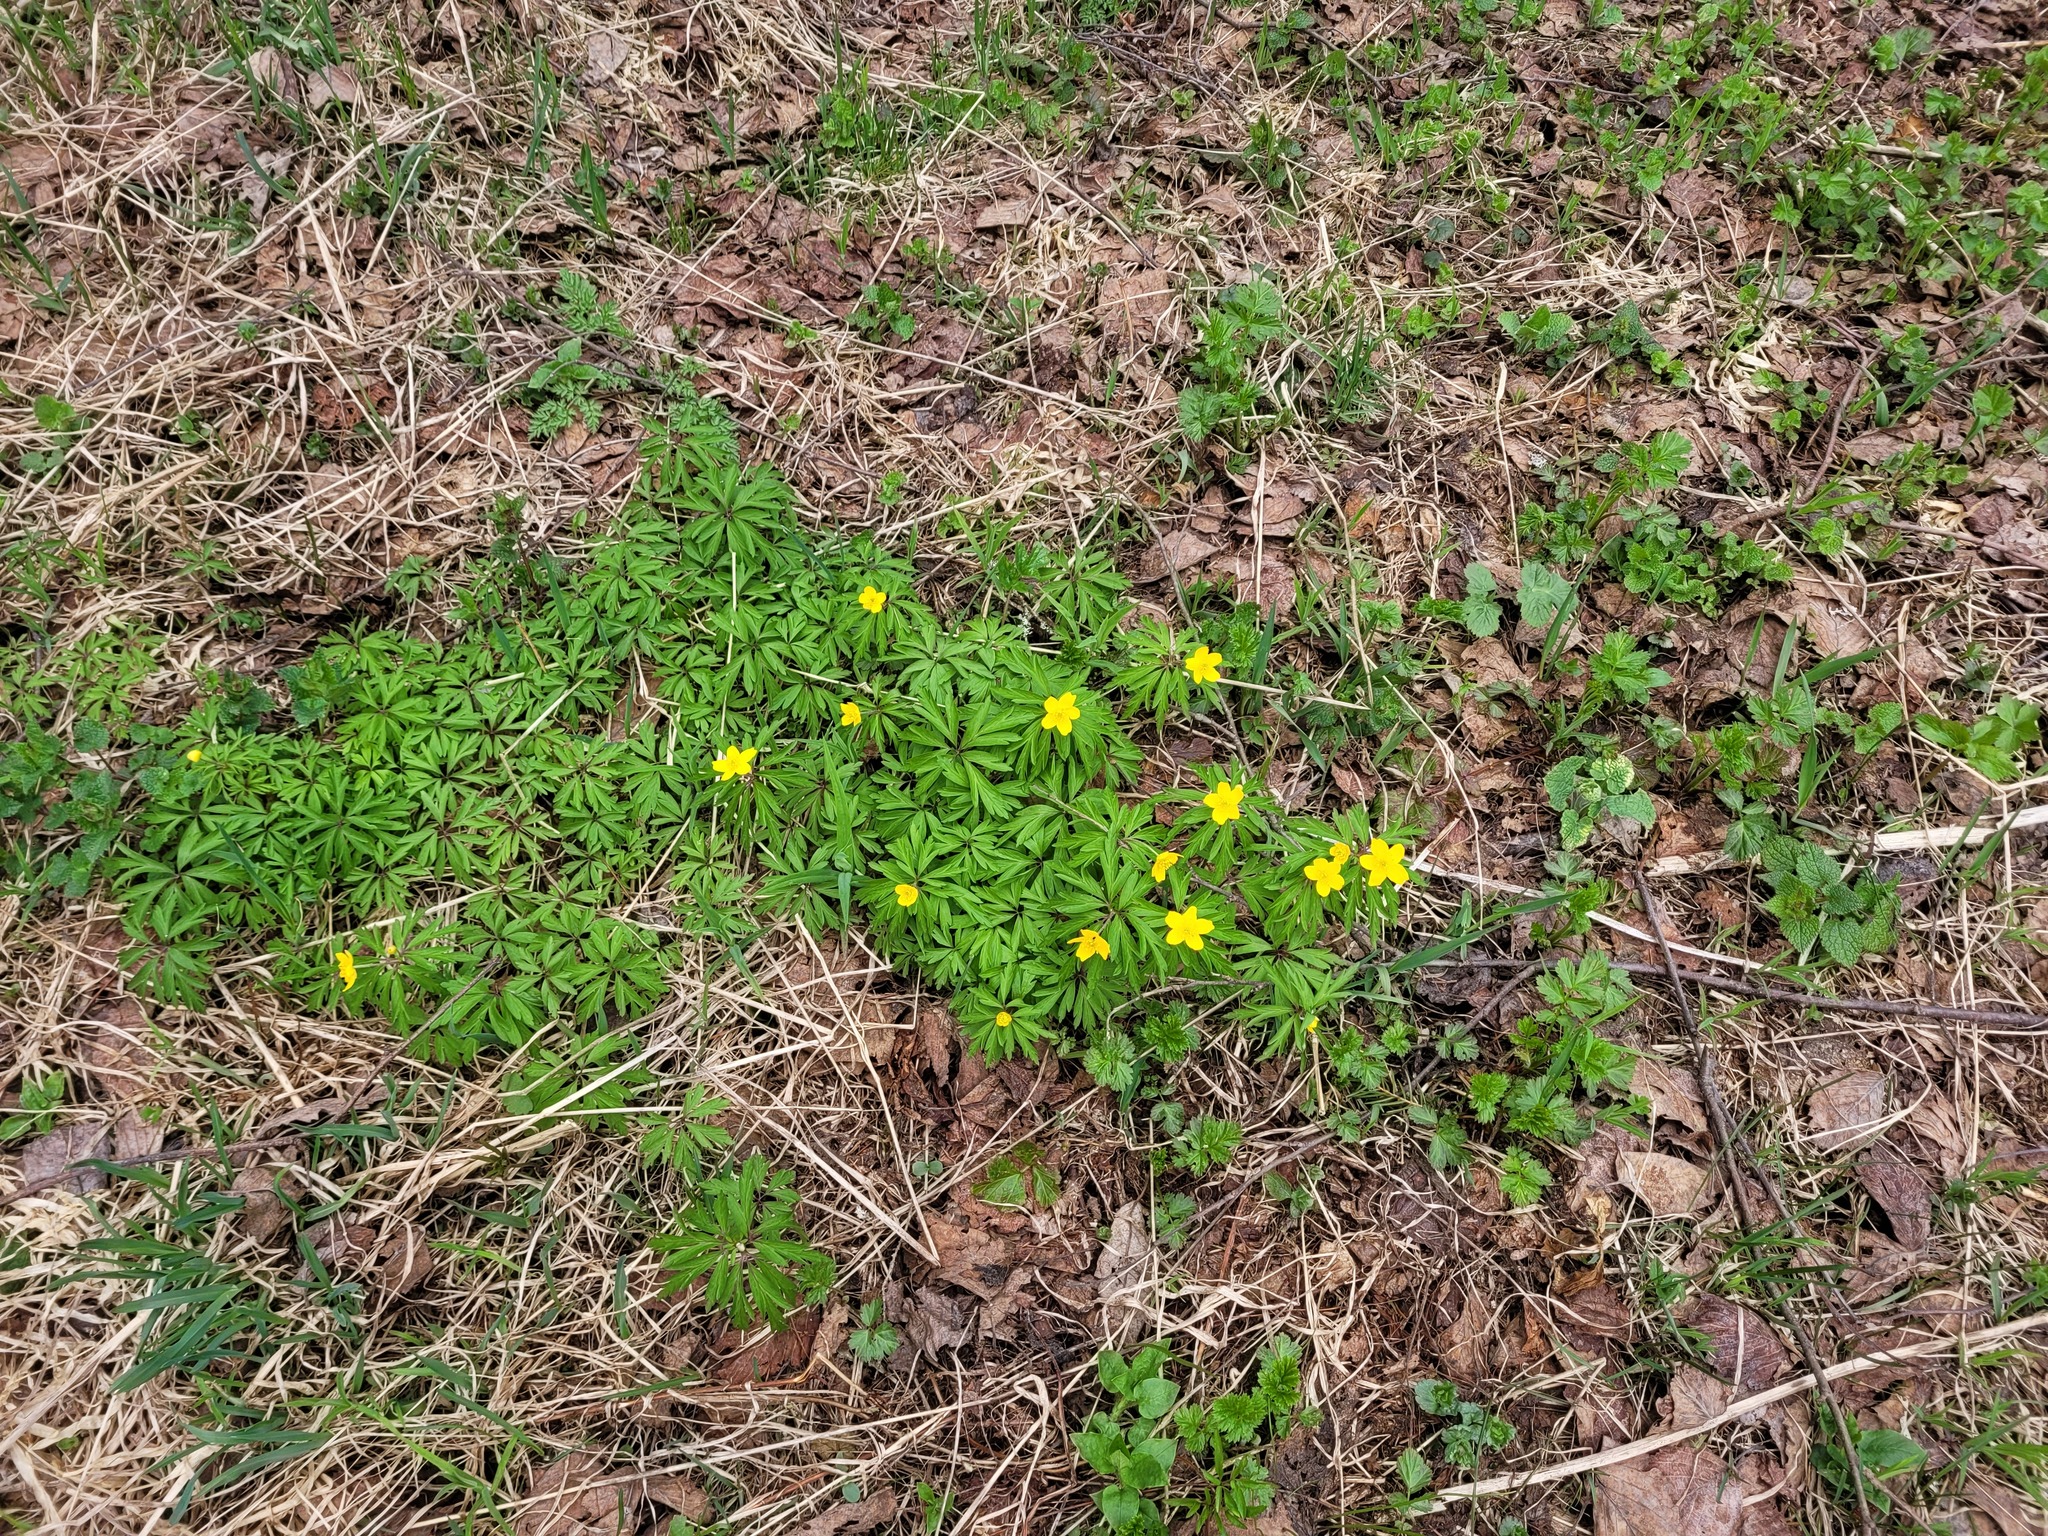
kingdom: Plantae
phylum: Tracheophyta
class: Magnoliopsida
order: Ranunculales
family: Ranunculaceae
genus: Anemone
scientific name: Anemone ranunculoides
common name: Yellow anemone
